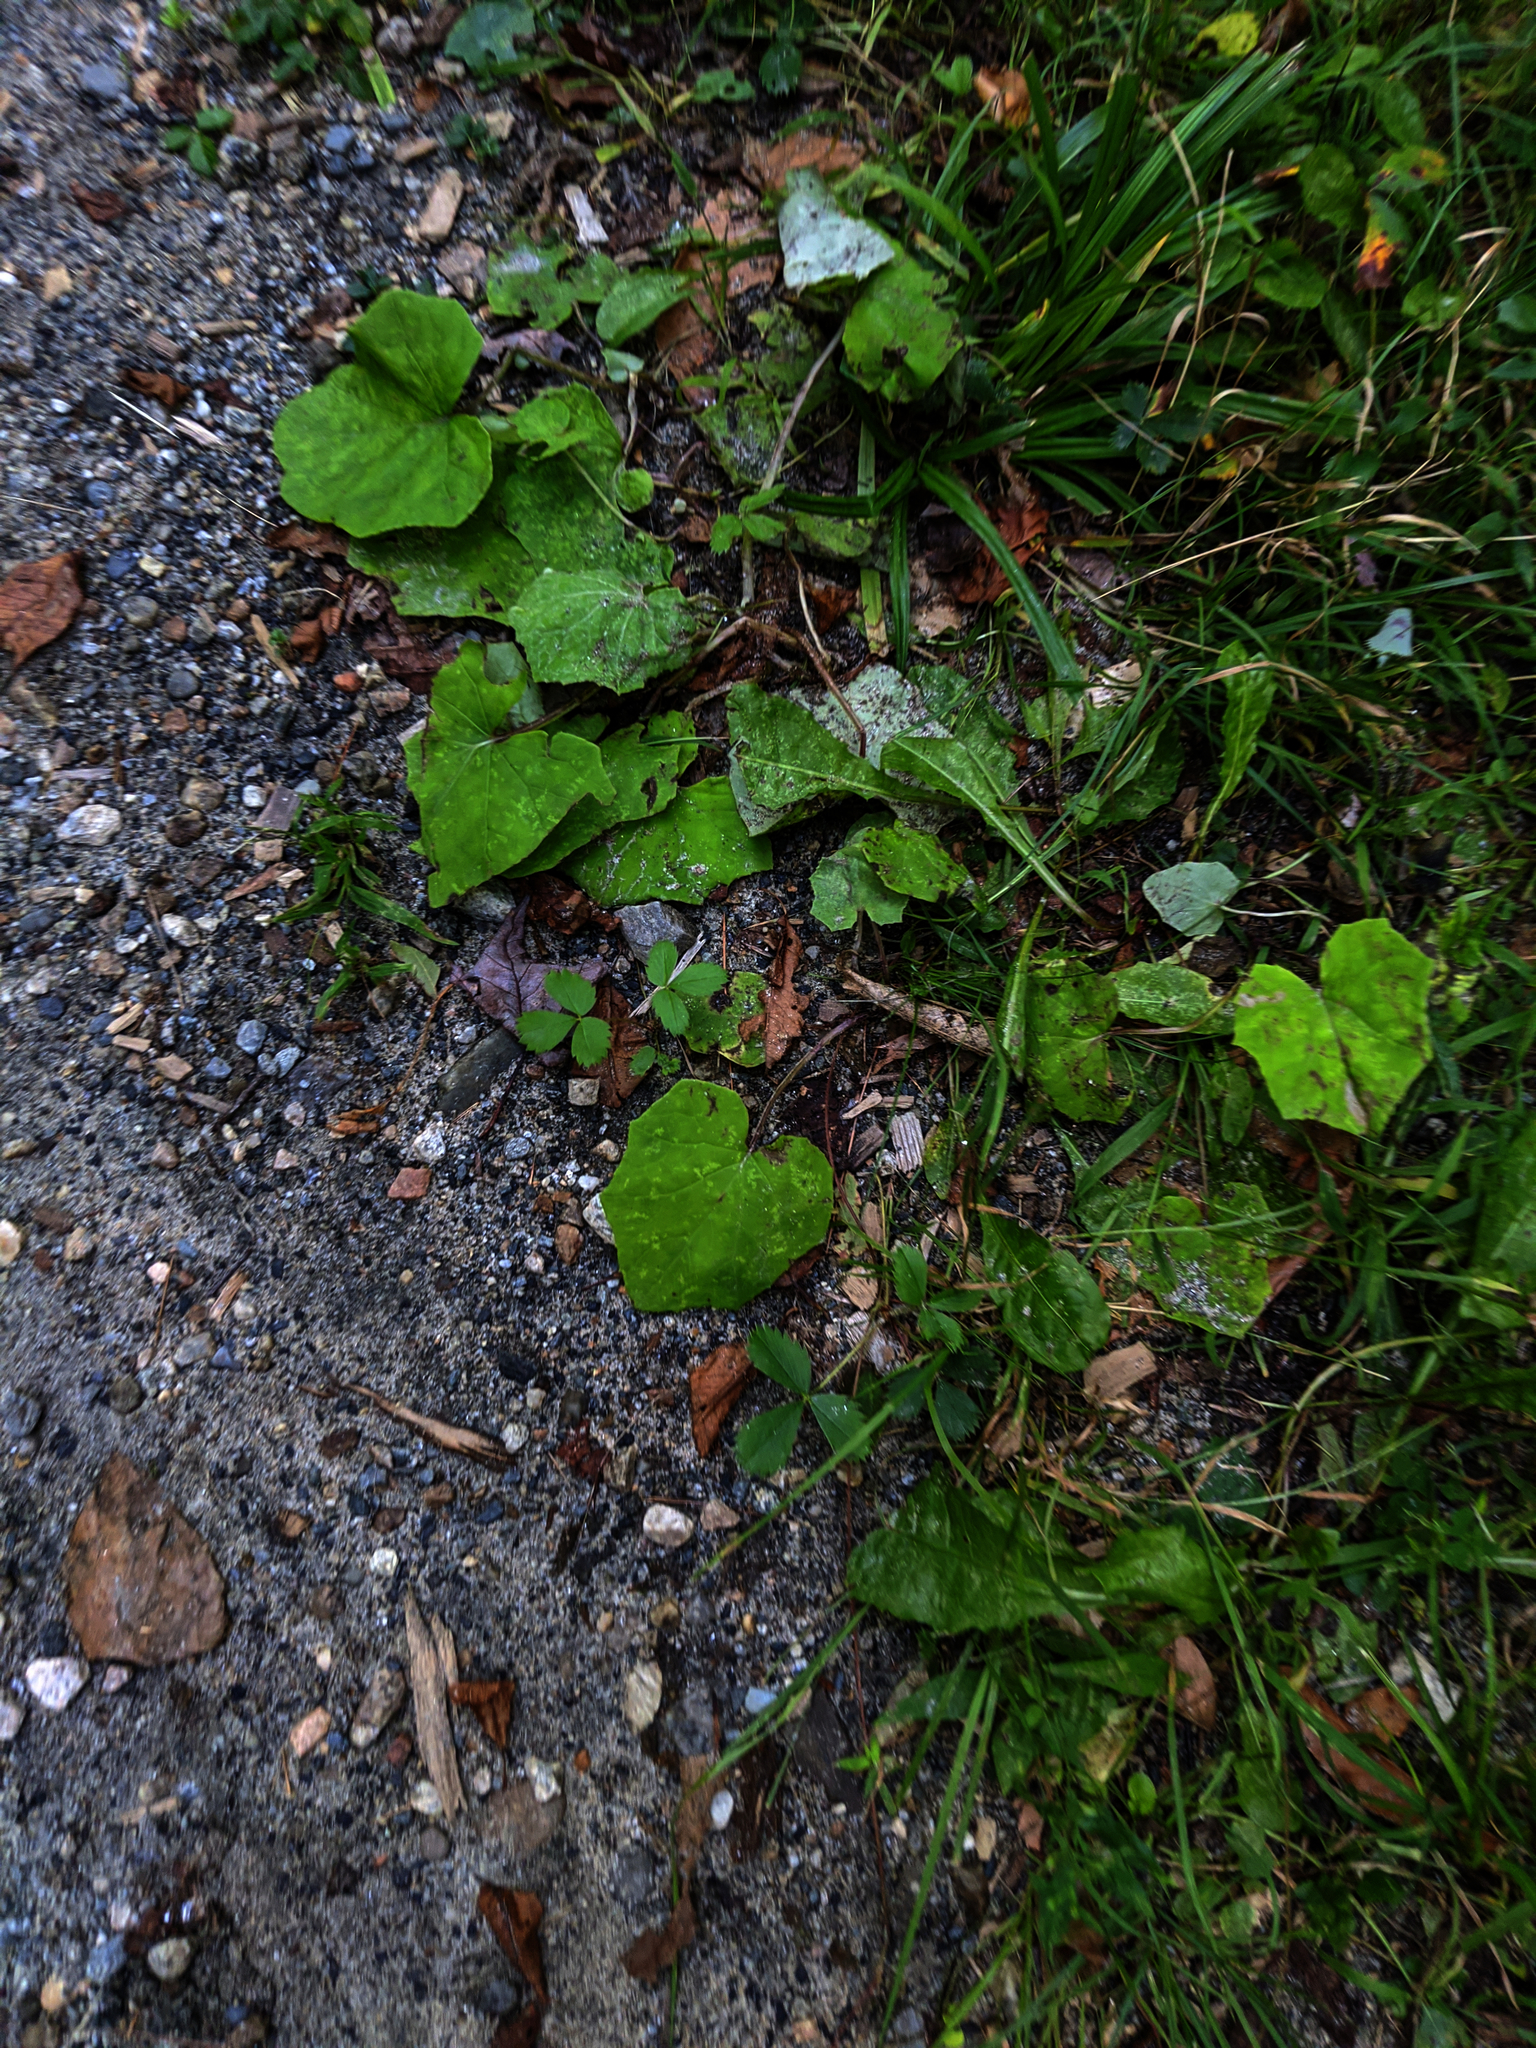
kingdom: Plantae
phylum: Tracheophyta
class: Magnoliopsida
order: Asterales
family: Asteraceae
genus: Tussilago
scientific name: Tussilago farfara
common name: Coltsfoot
